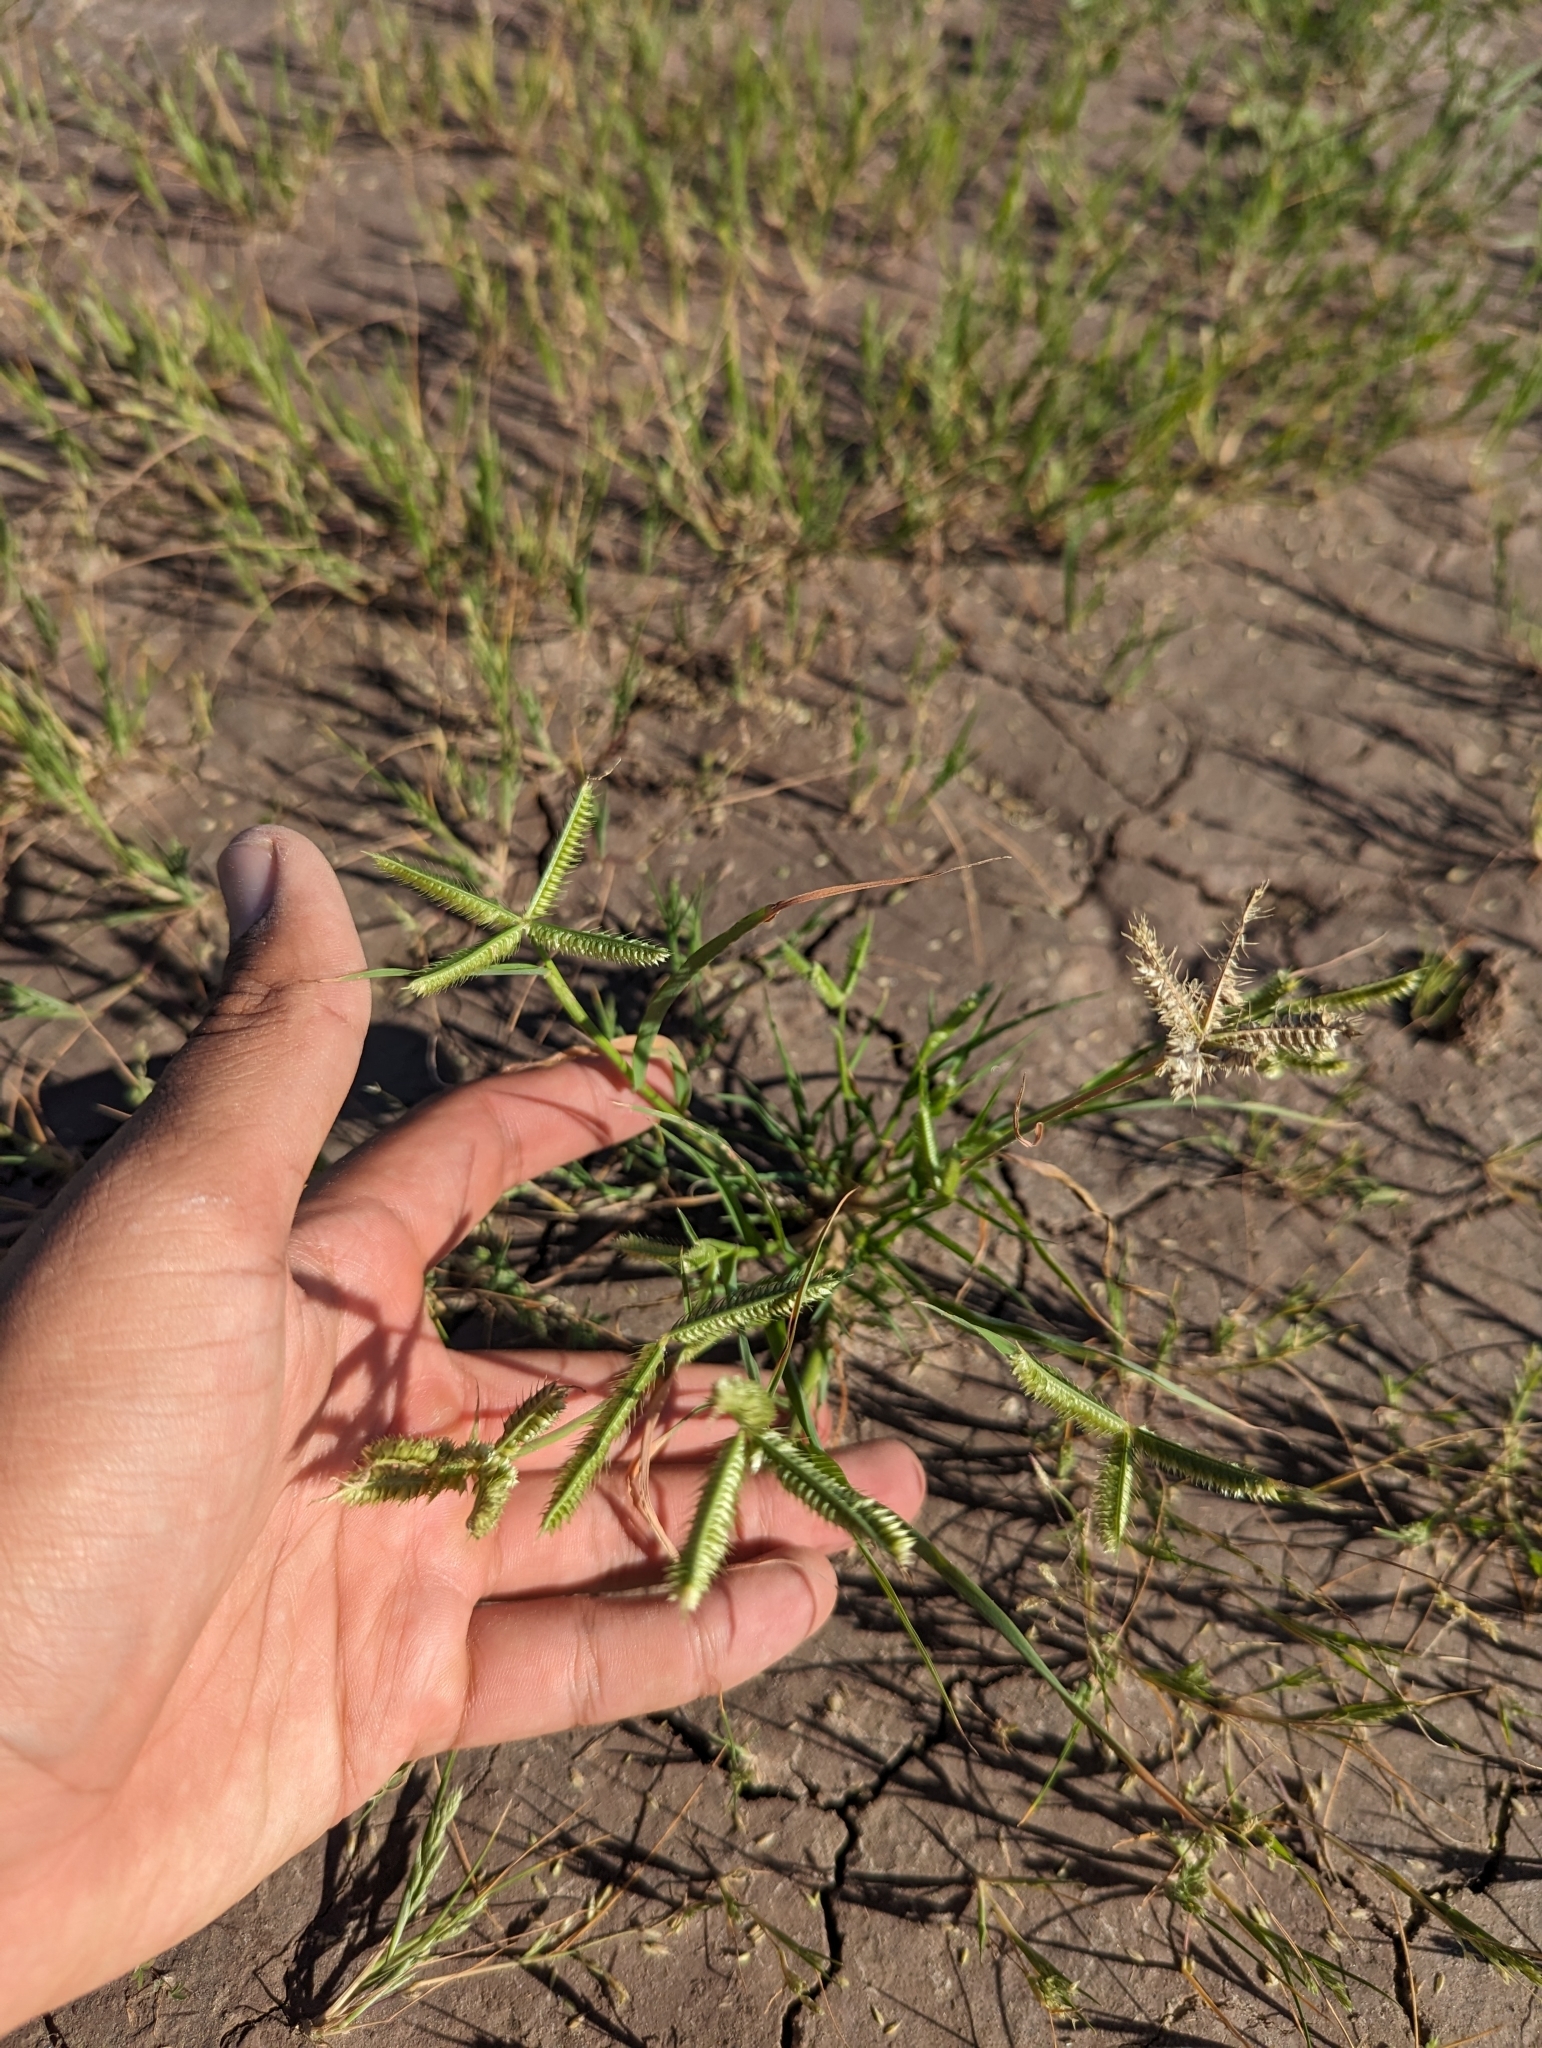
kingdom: Plantae
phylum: Tracheophyta
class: Liliopsida
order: Poales
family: Poaceae
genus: Dactyloctenium
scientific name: Dactyloctenium aegyptium
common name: Egyptian grass
